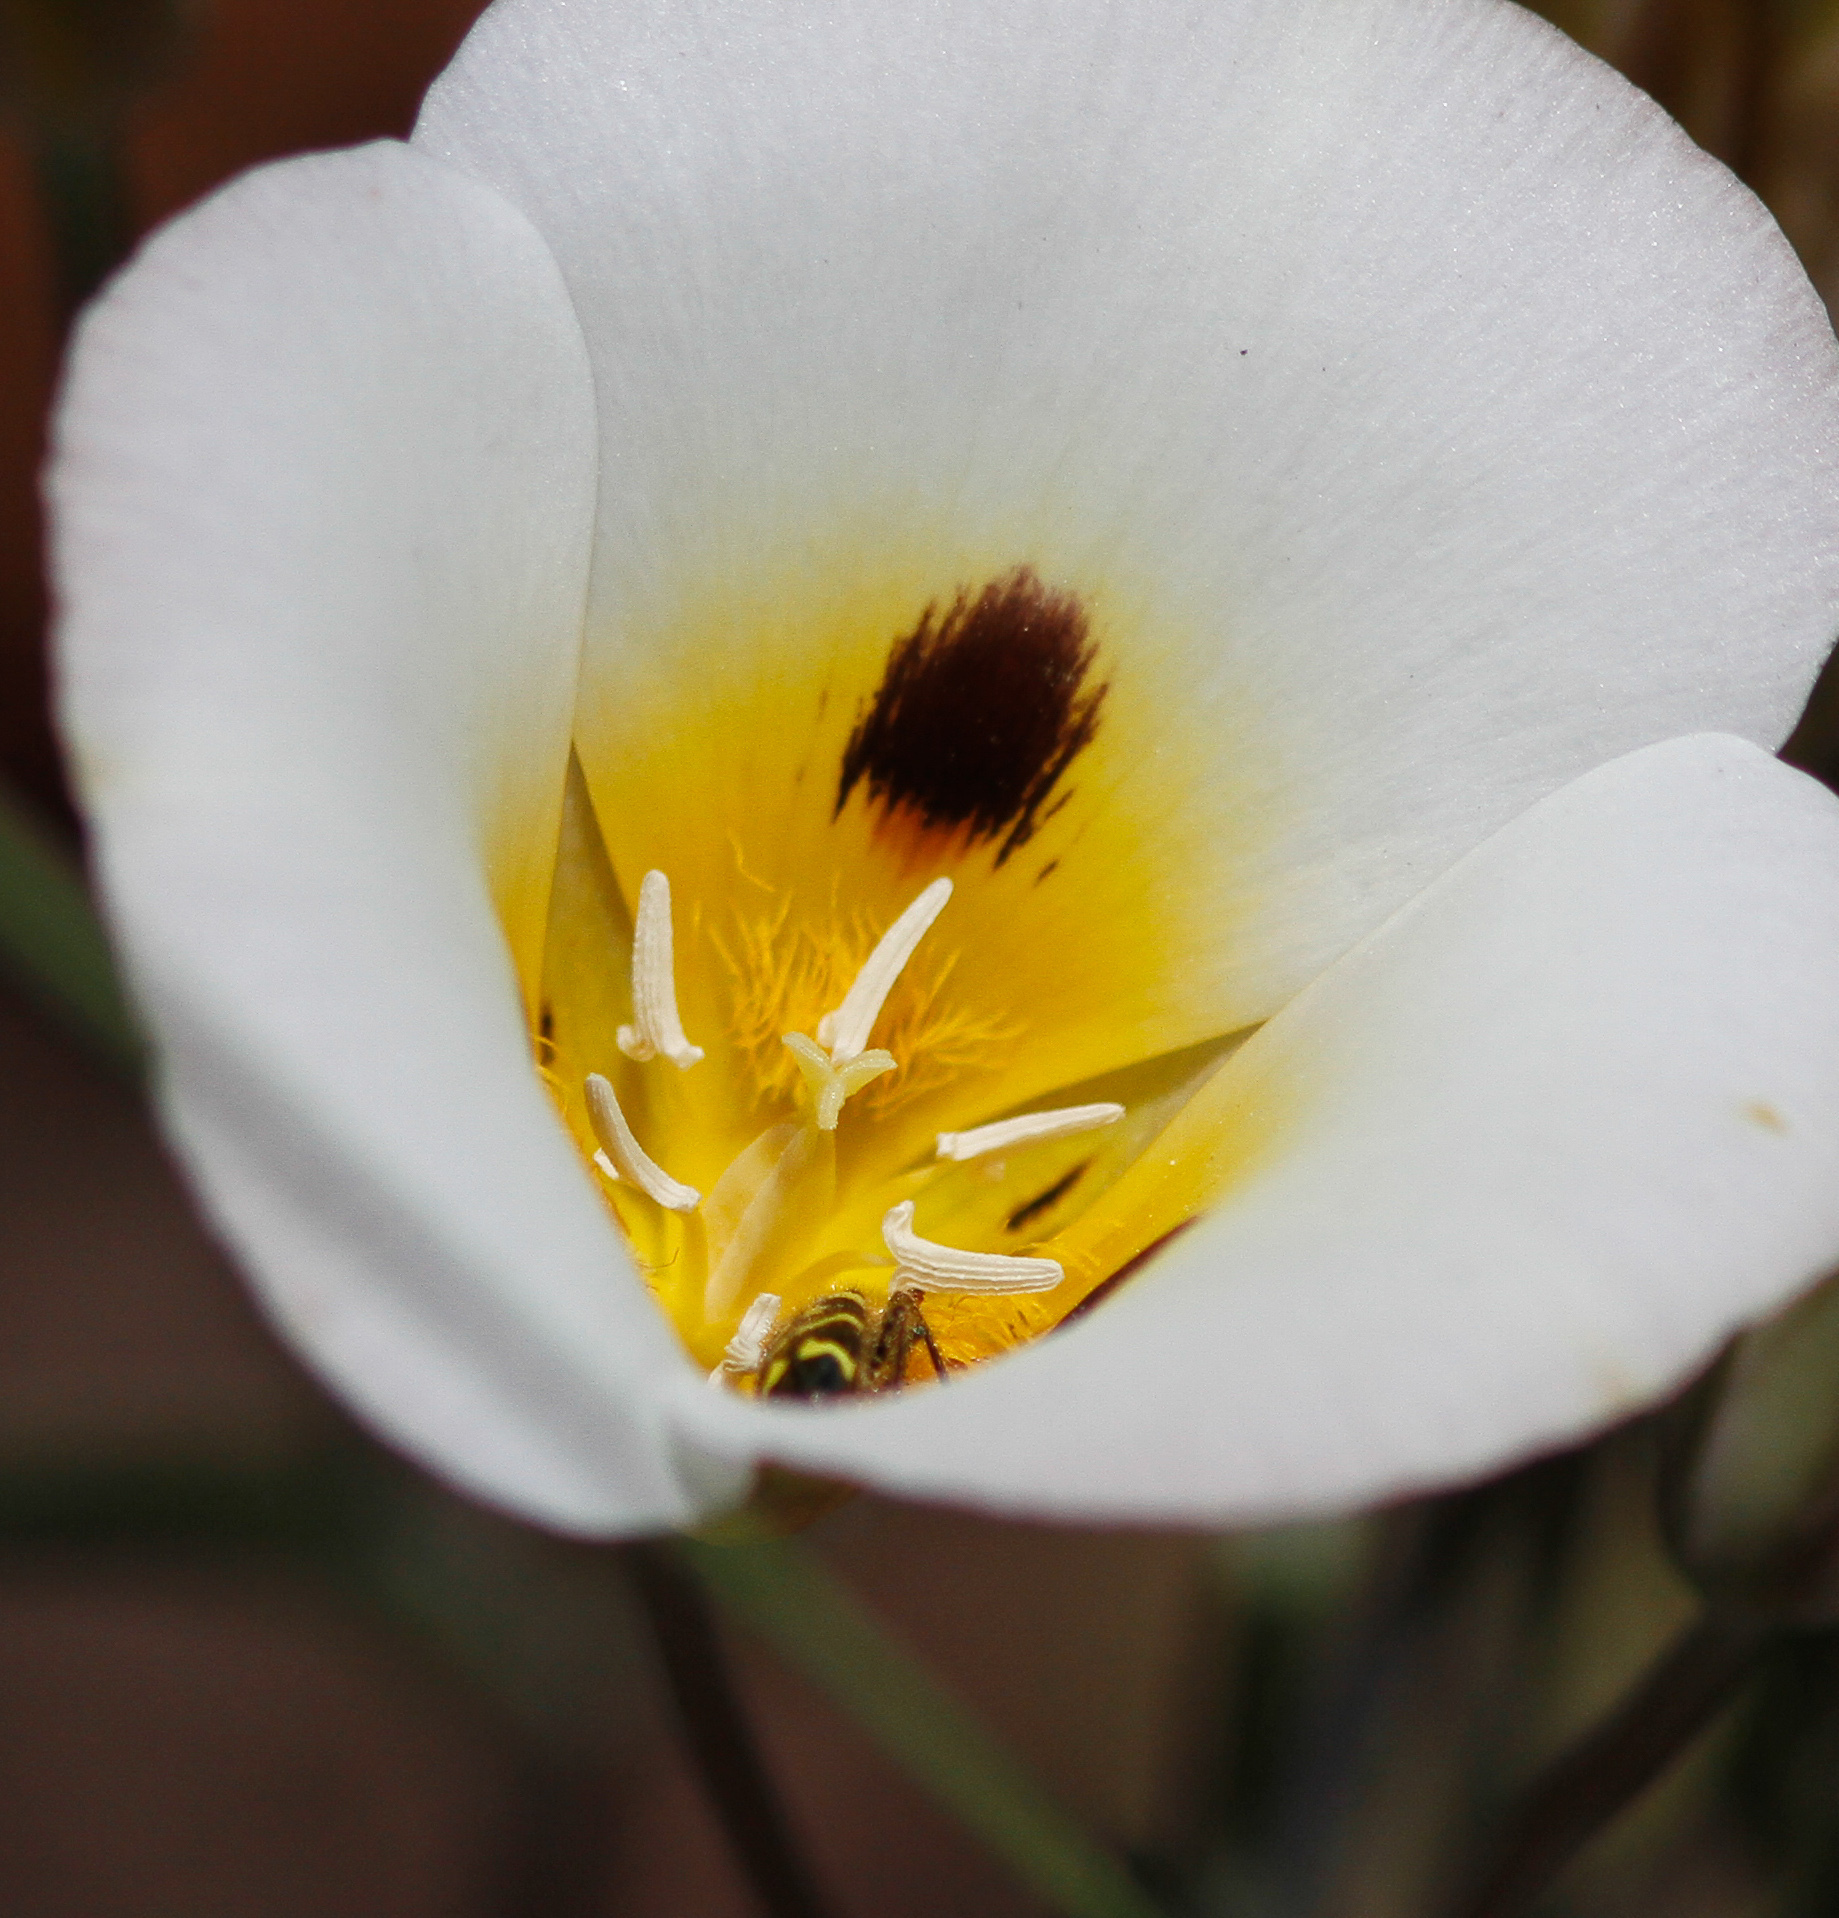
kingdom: Plantae
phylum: Tracheophyta
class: Liliopsida
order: Liliales
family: Liliaceae
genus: Calochortus
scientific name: Calochortus leichtlinii
